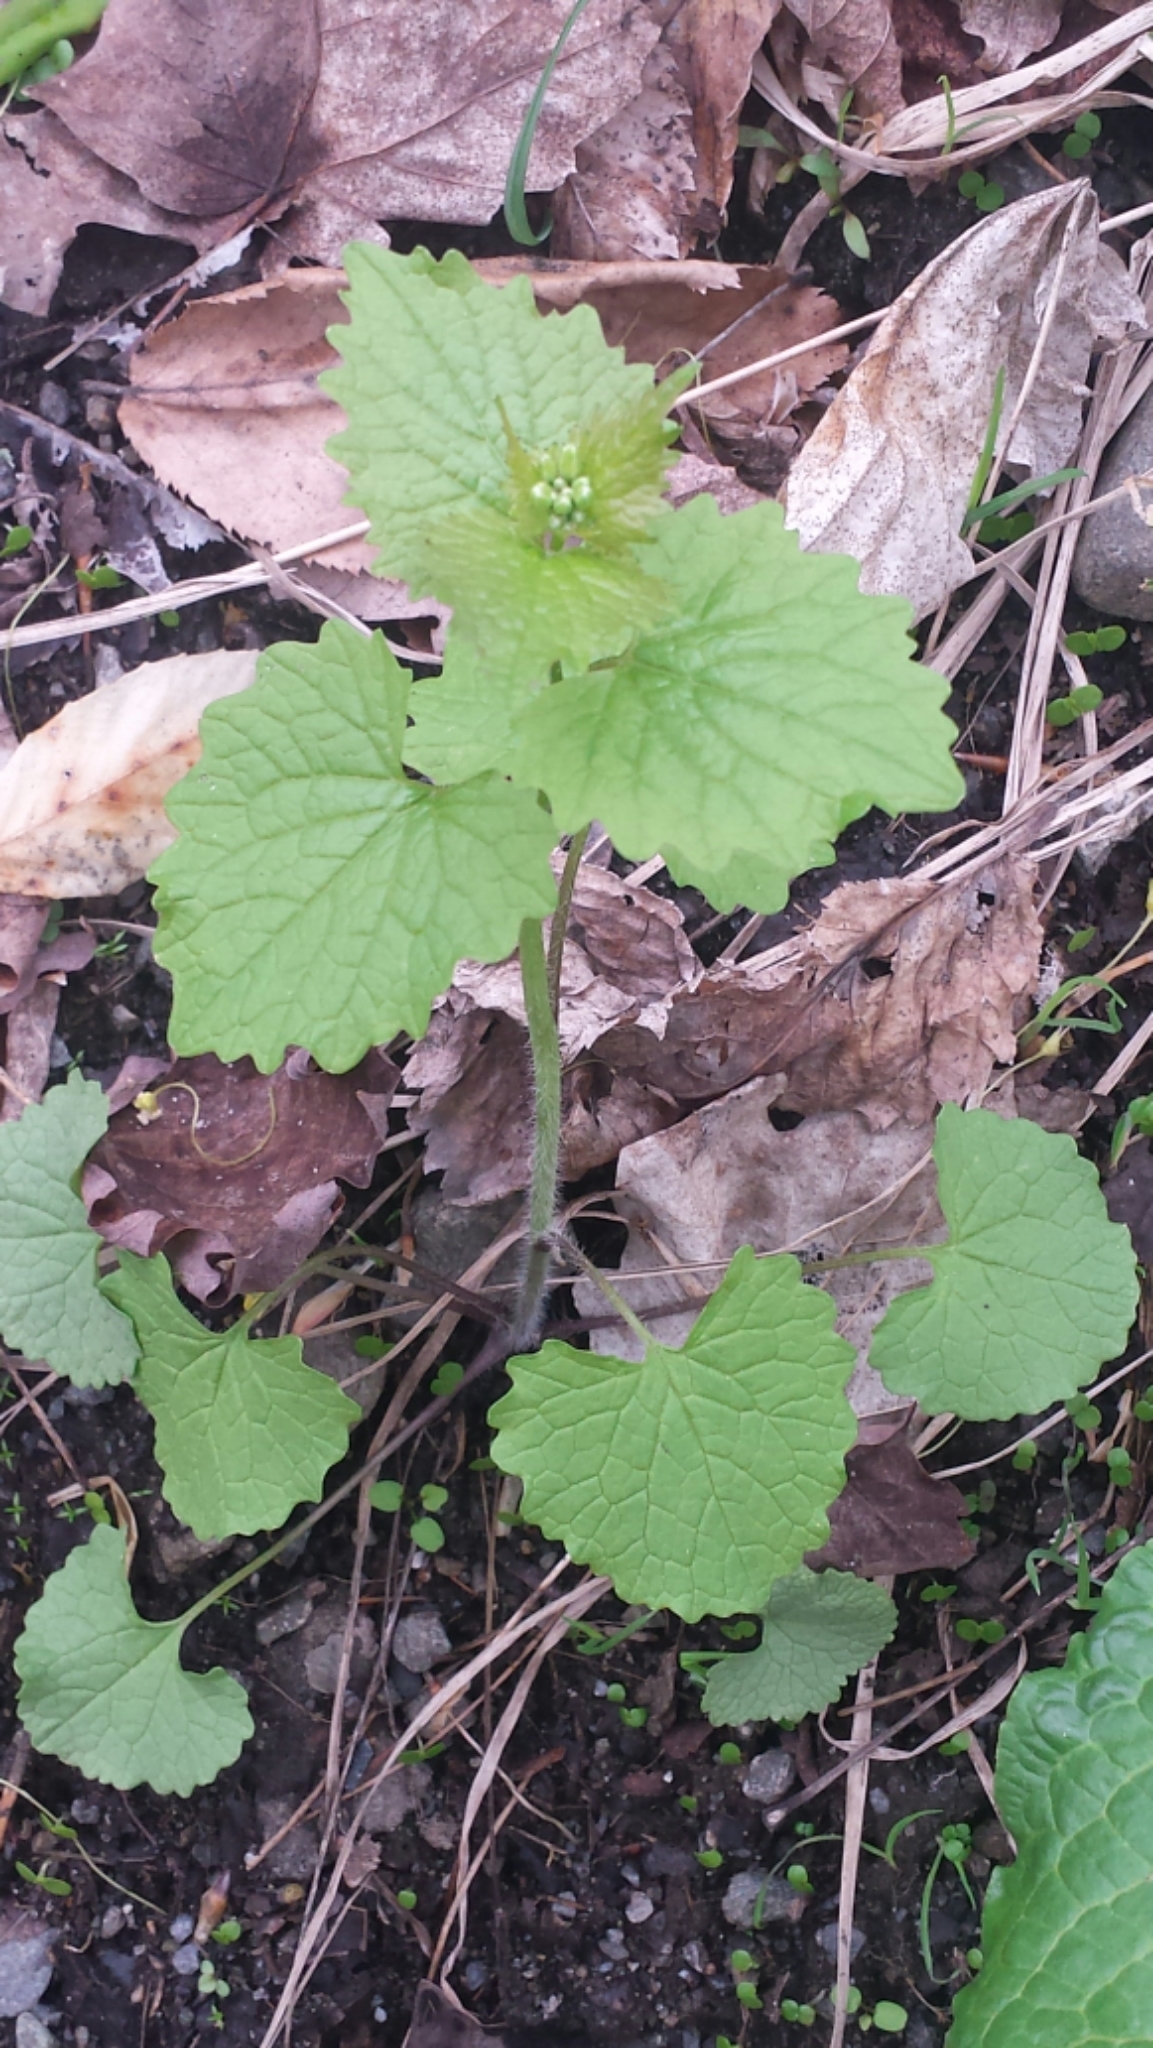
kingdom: Plantae
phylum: Tracheophyta
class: Magnoliopsida
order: Brassicales
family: Brassicaceae
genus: Alliaria
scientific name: Alliaria petiolata
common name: Garlic mustard
